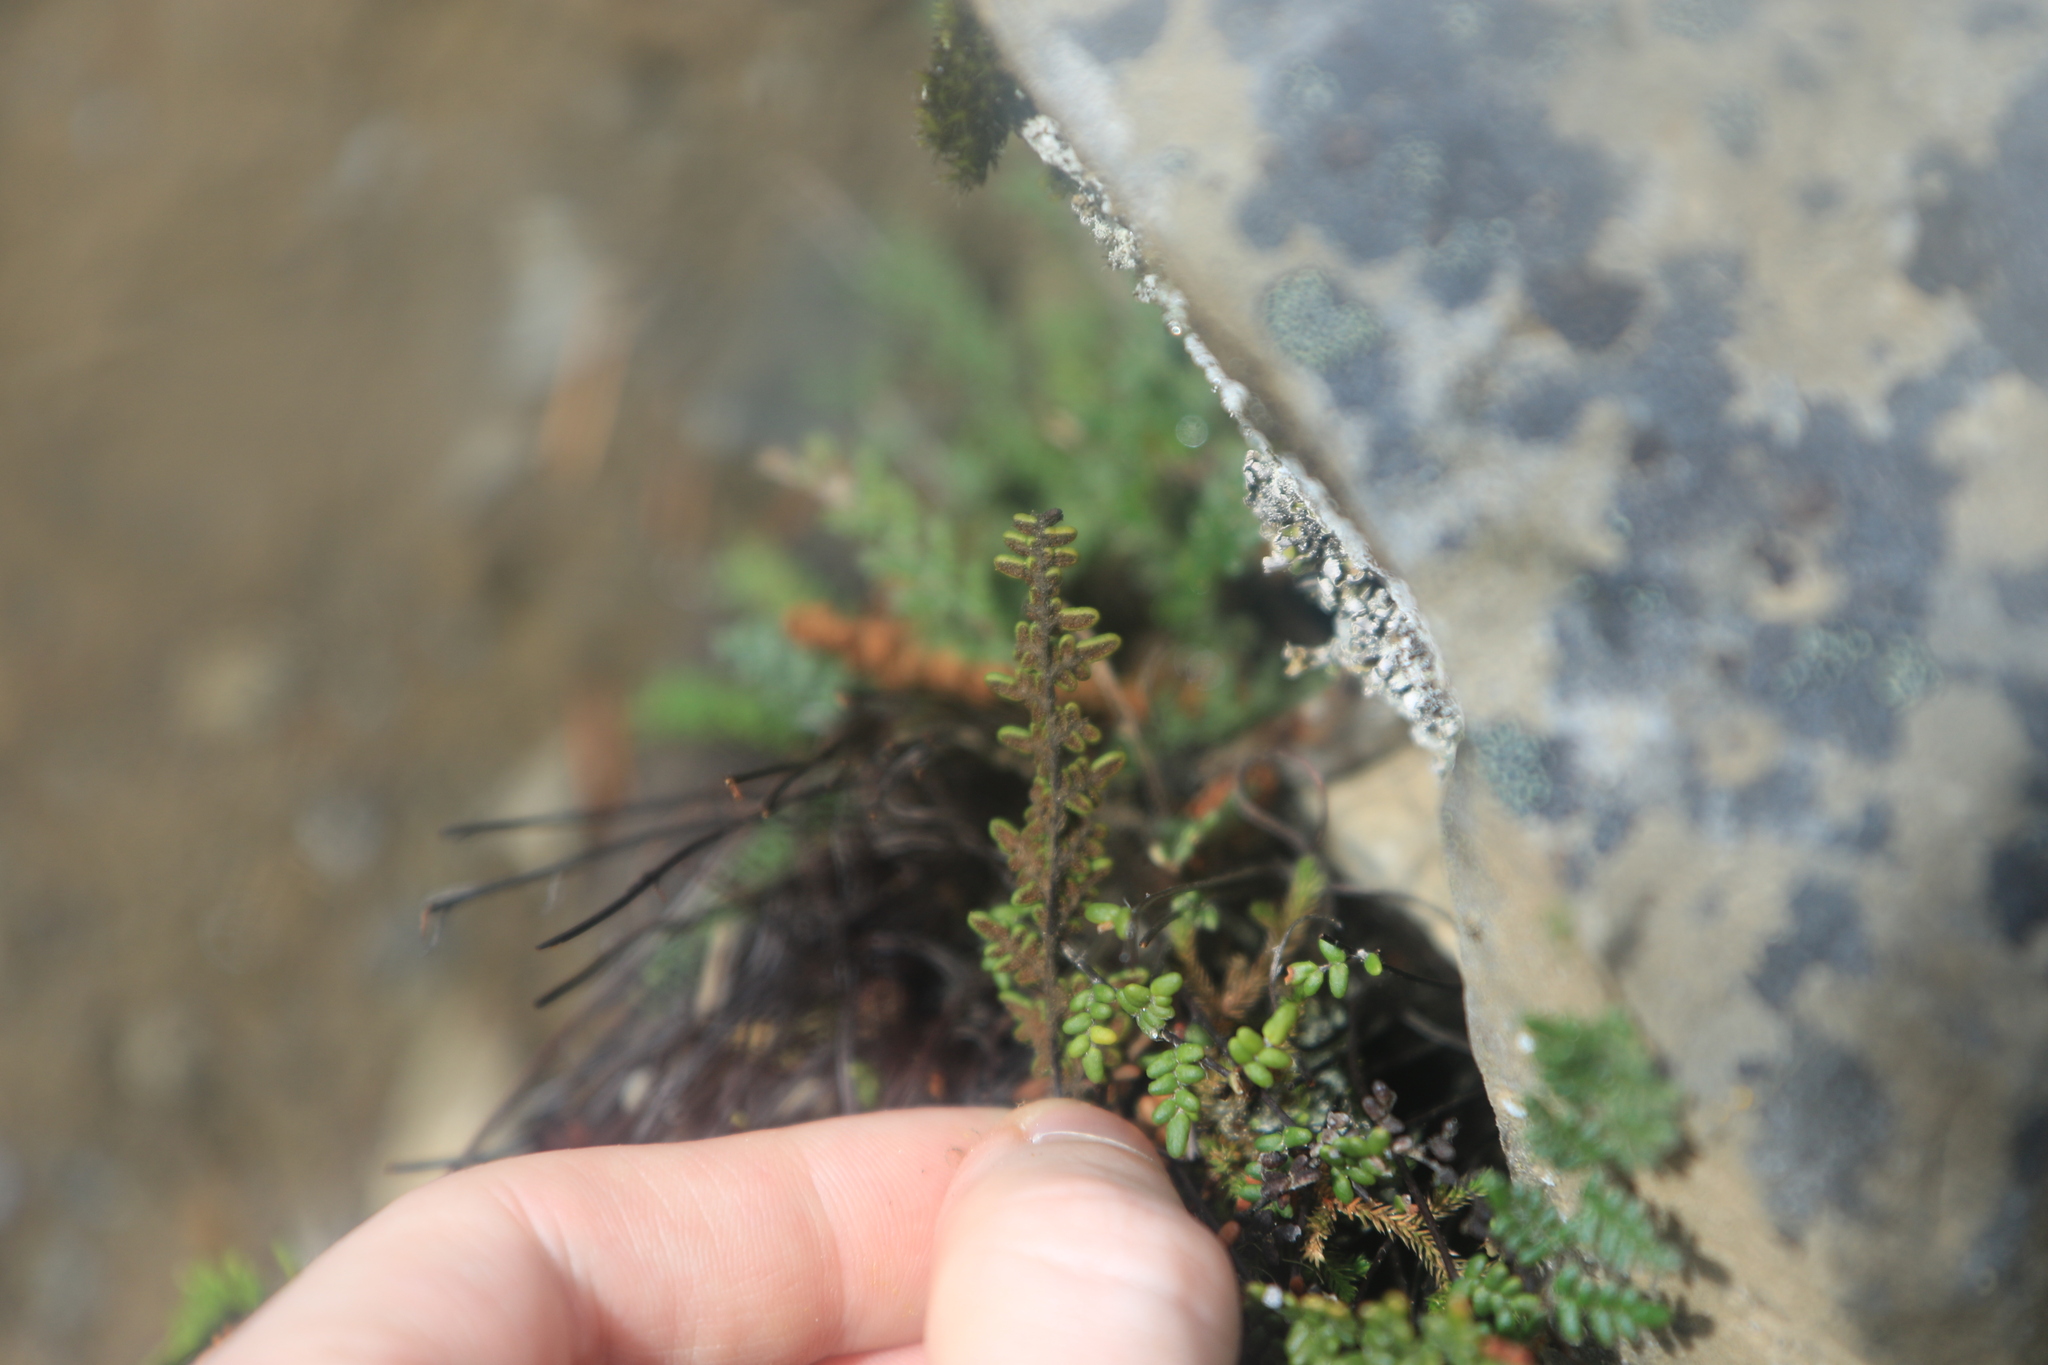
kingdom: Plantae
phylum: Tracheophyta
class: Polypodiopsida
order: Polypodiales
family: Pteridaceae
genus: Myriopteris
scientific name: Myriopteris gracillima
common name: Lace fern
